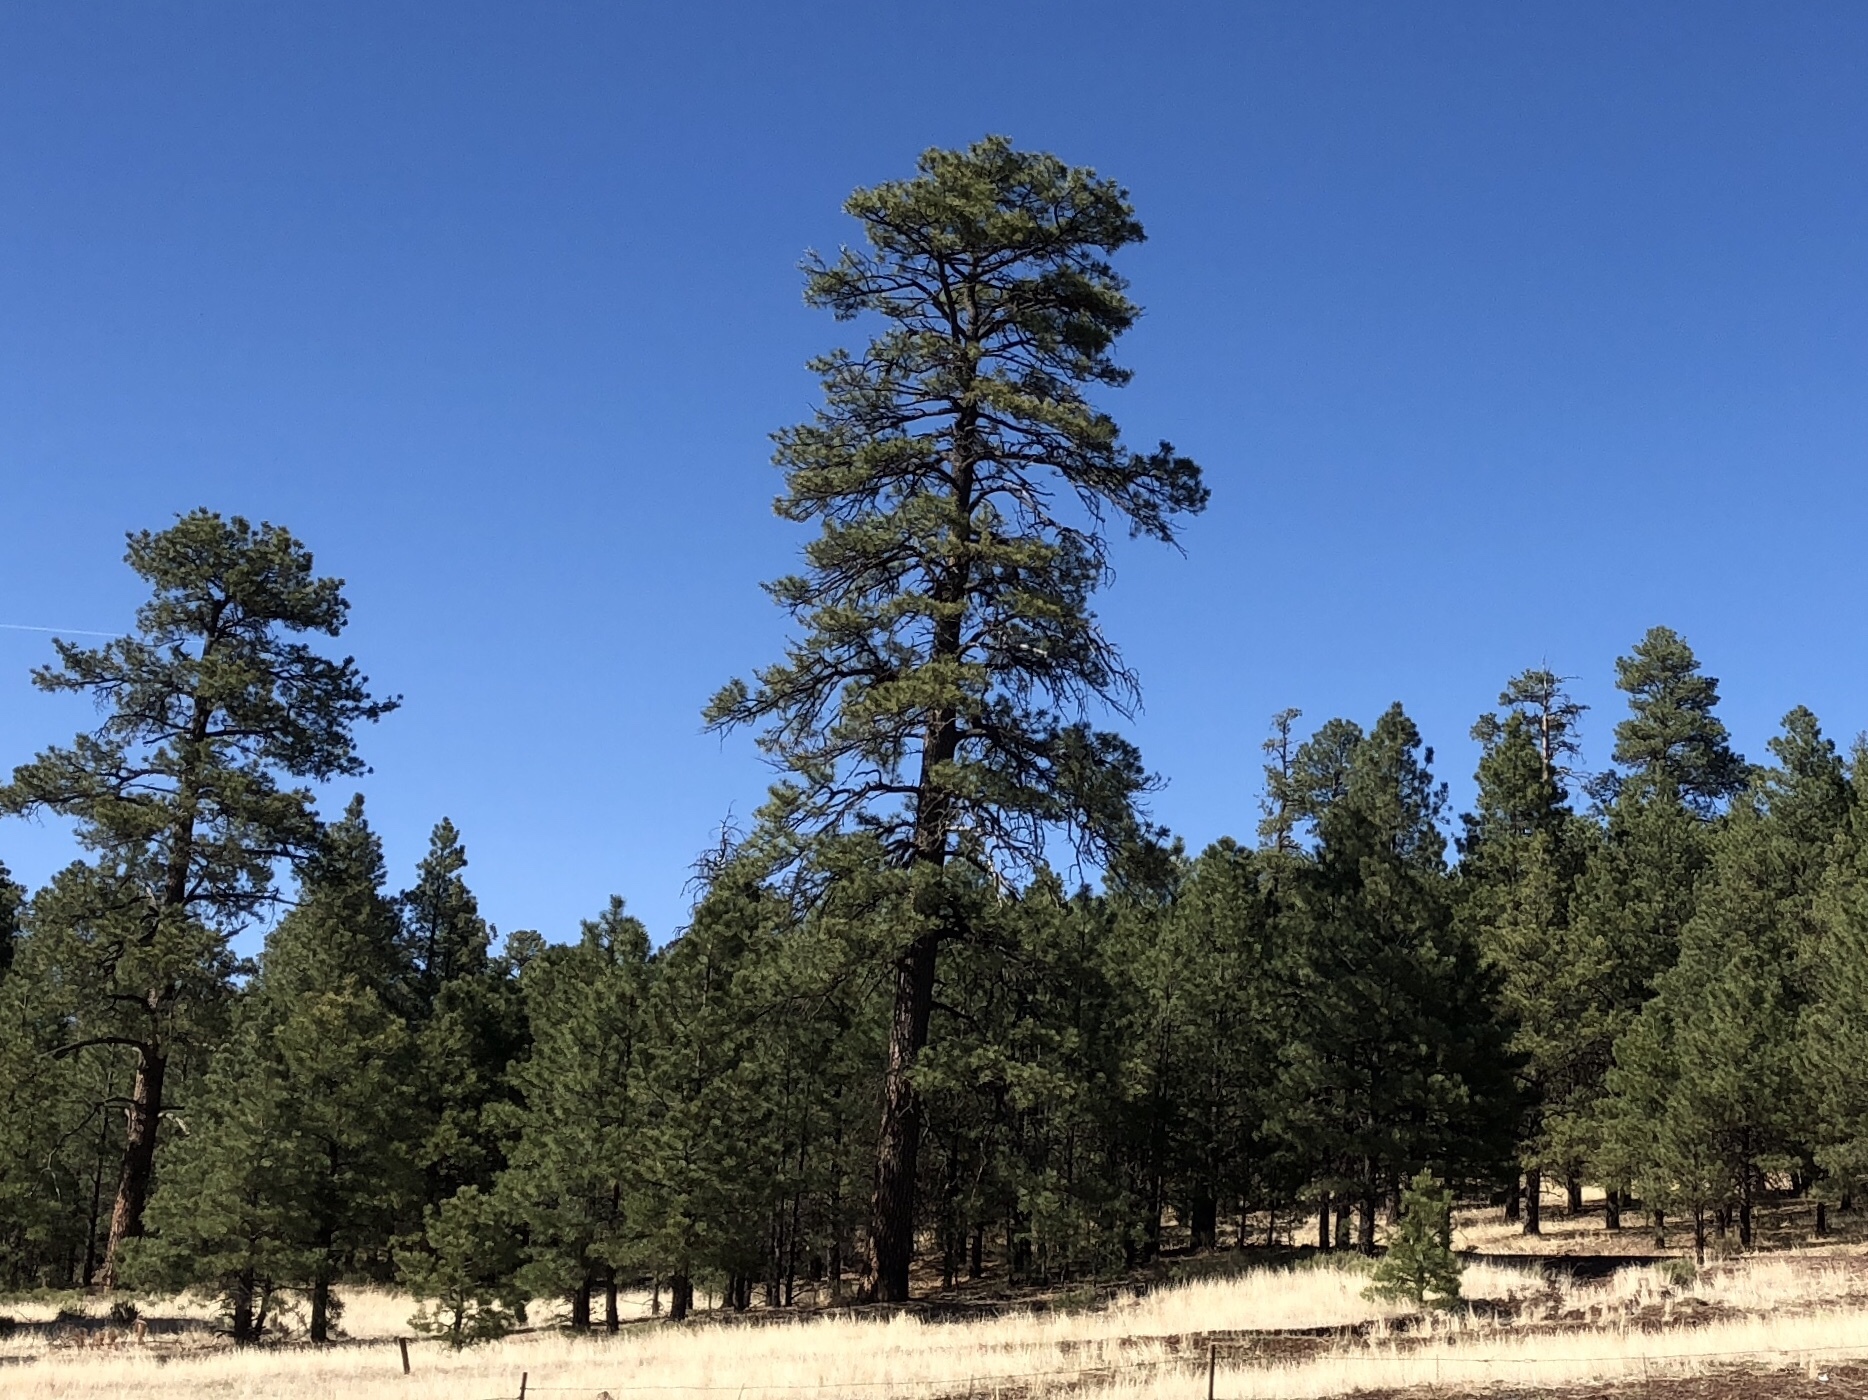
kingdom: Plantae
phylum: Tracheophyta
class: Pinopsida
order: Pinales
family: Pinaceae
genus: Pinus
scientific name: Pinus ponderosa
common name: Western yellow-pine
